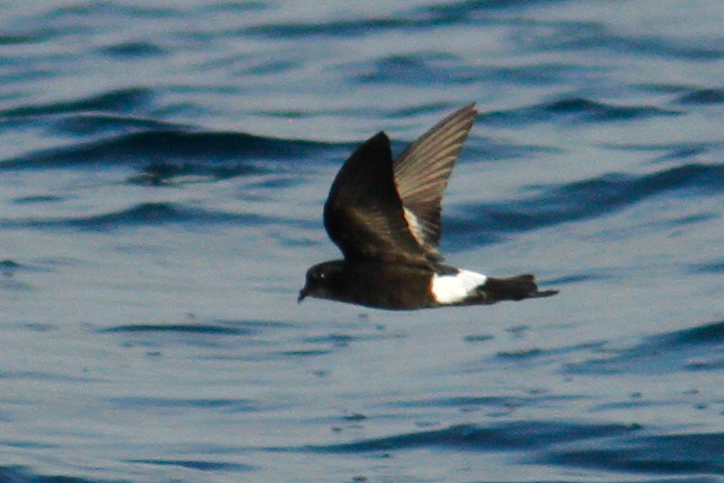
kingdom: Animalia
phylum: Chordata
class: Aves
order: Procellariiformes
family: Hydrobatidae
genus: Oceanites
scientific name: Oceanites oceanicus
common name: Wilson's storm petrel
